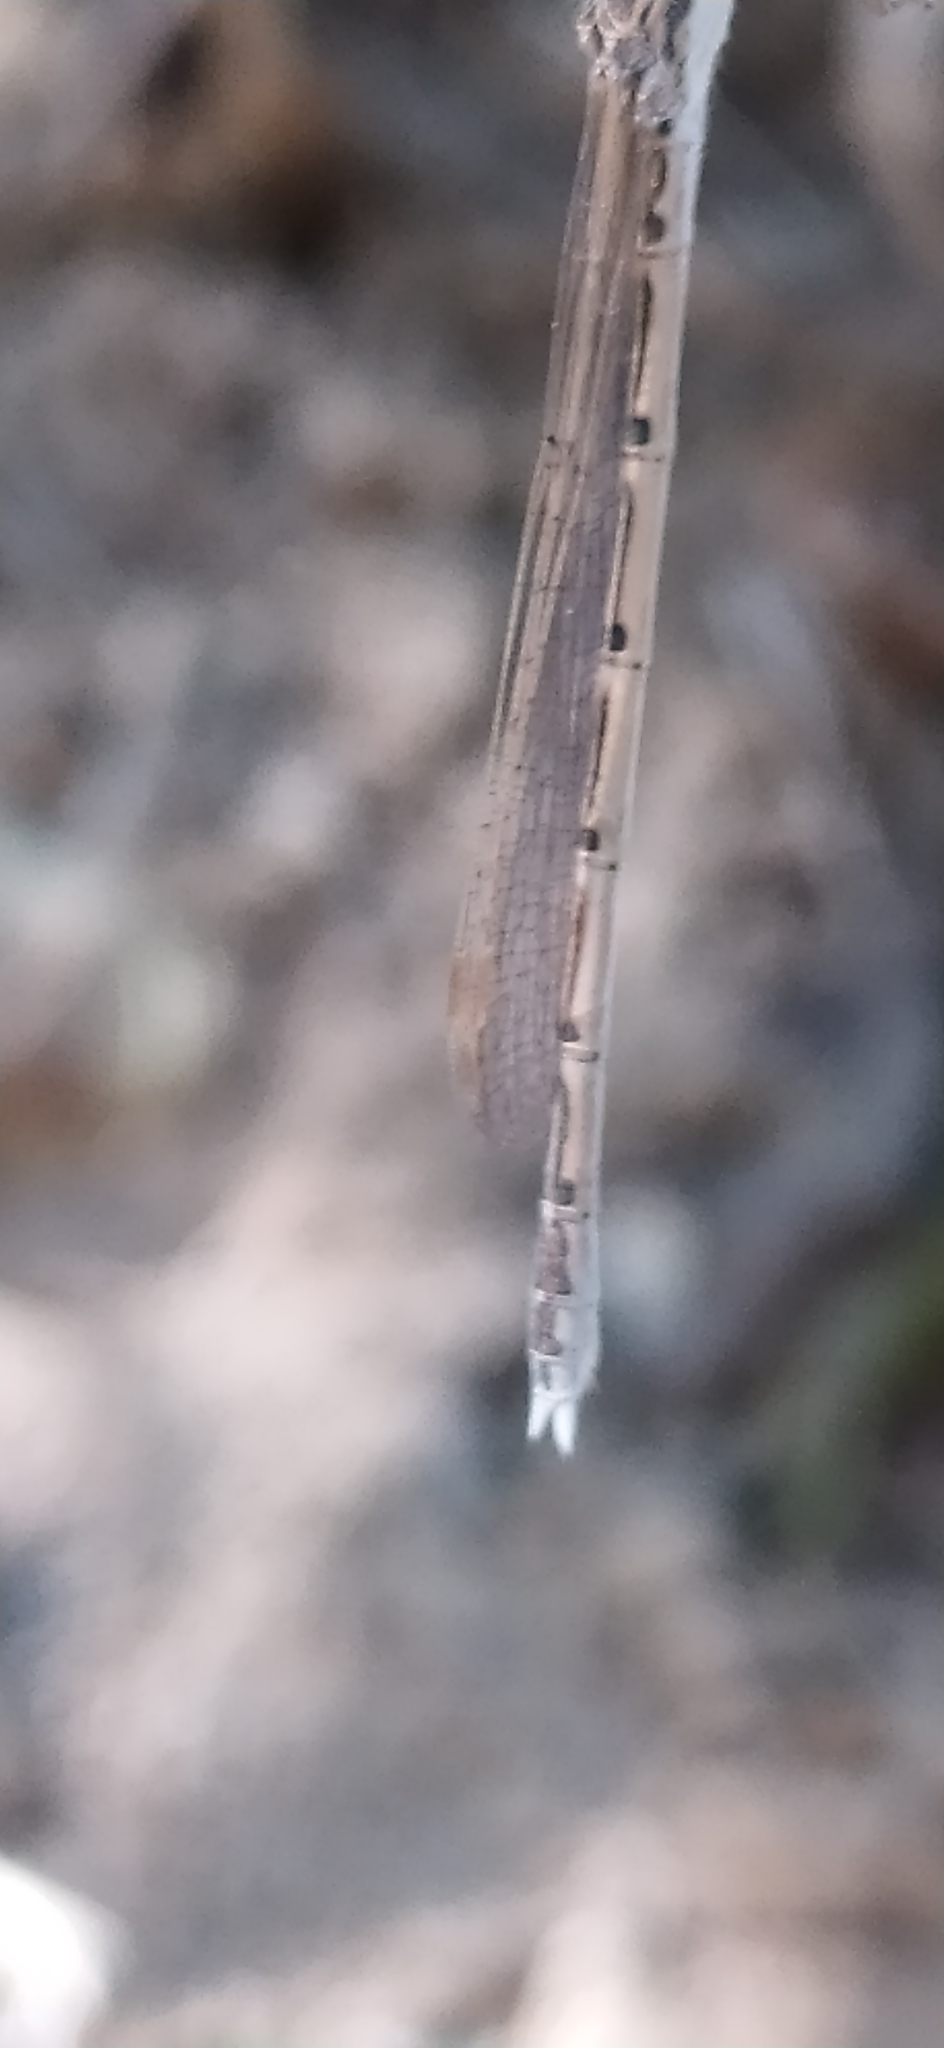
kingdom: Animalia
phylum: Arthropoda
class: Insecta
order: Odonata
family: Lestidae
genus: Sympecma
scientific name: Sympecma fusca
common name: Common winter damsel
